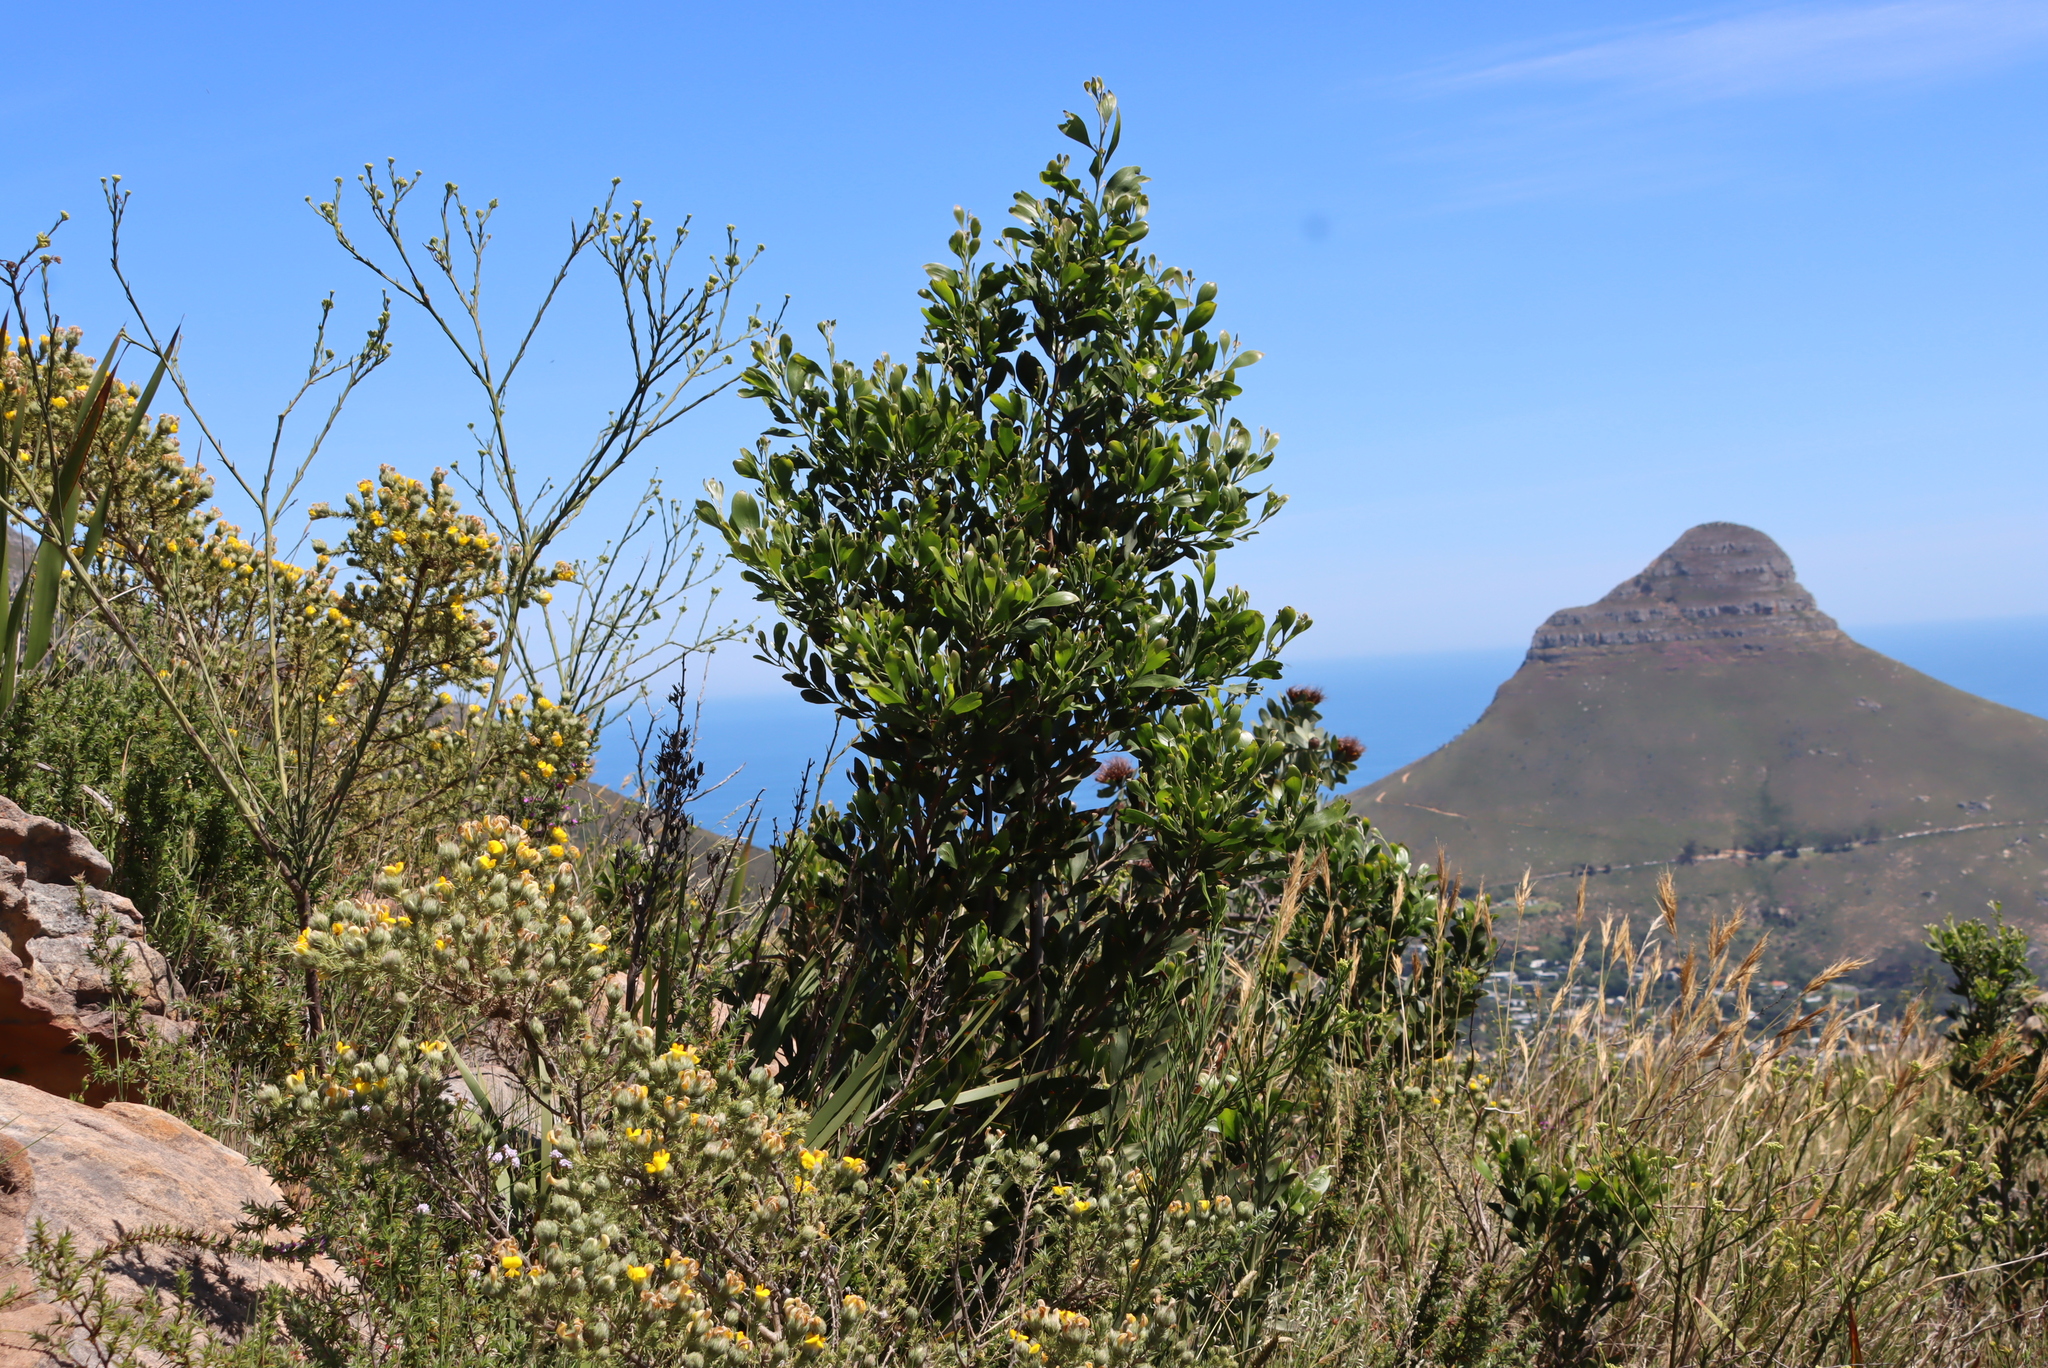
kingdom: Plantae
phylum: Tracheophyta
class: Magnoliopsida
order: Fabales
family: Fabaceae
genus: Acacia
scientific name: Acacia melanoxylon
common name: Blackwood
